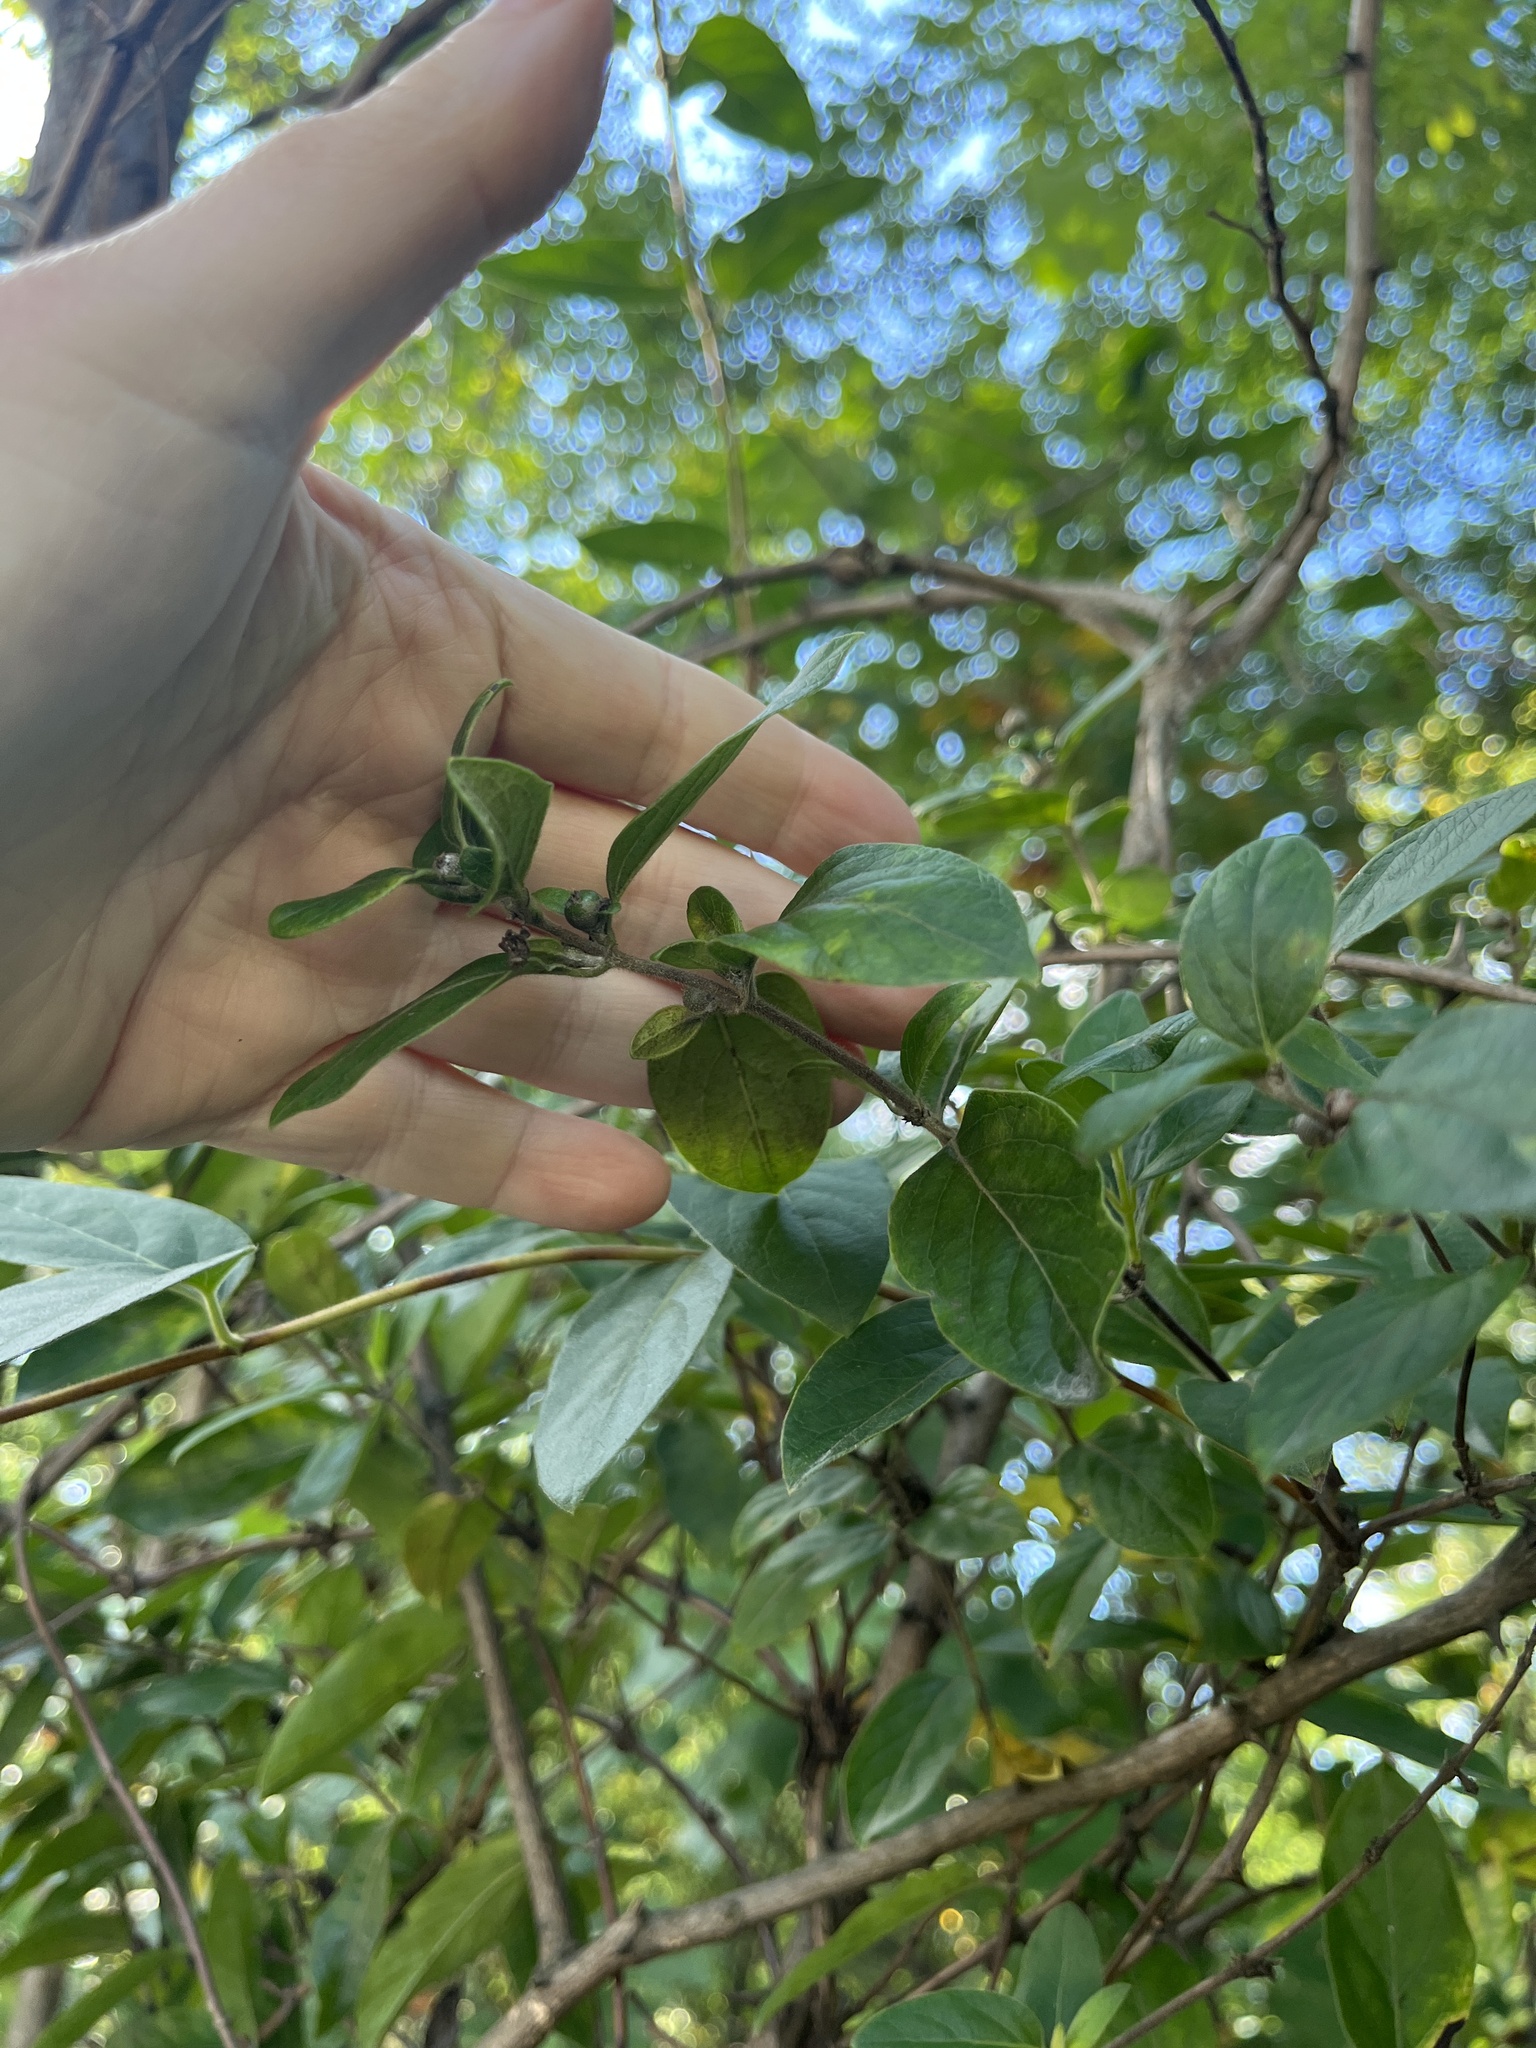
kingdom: Plantae
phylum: Tracheophyta
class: Magnoliopsida
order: Dipsacales
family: Caprifoliaceae
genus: Lonicera
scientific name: Lonicera japonica
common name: Japanese honeysuckle
